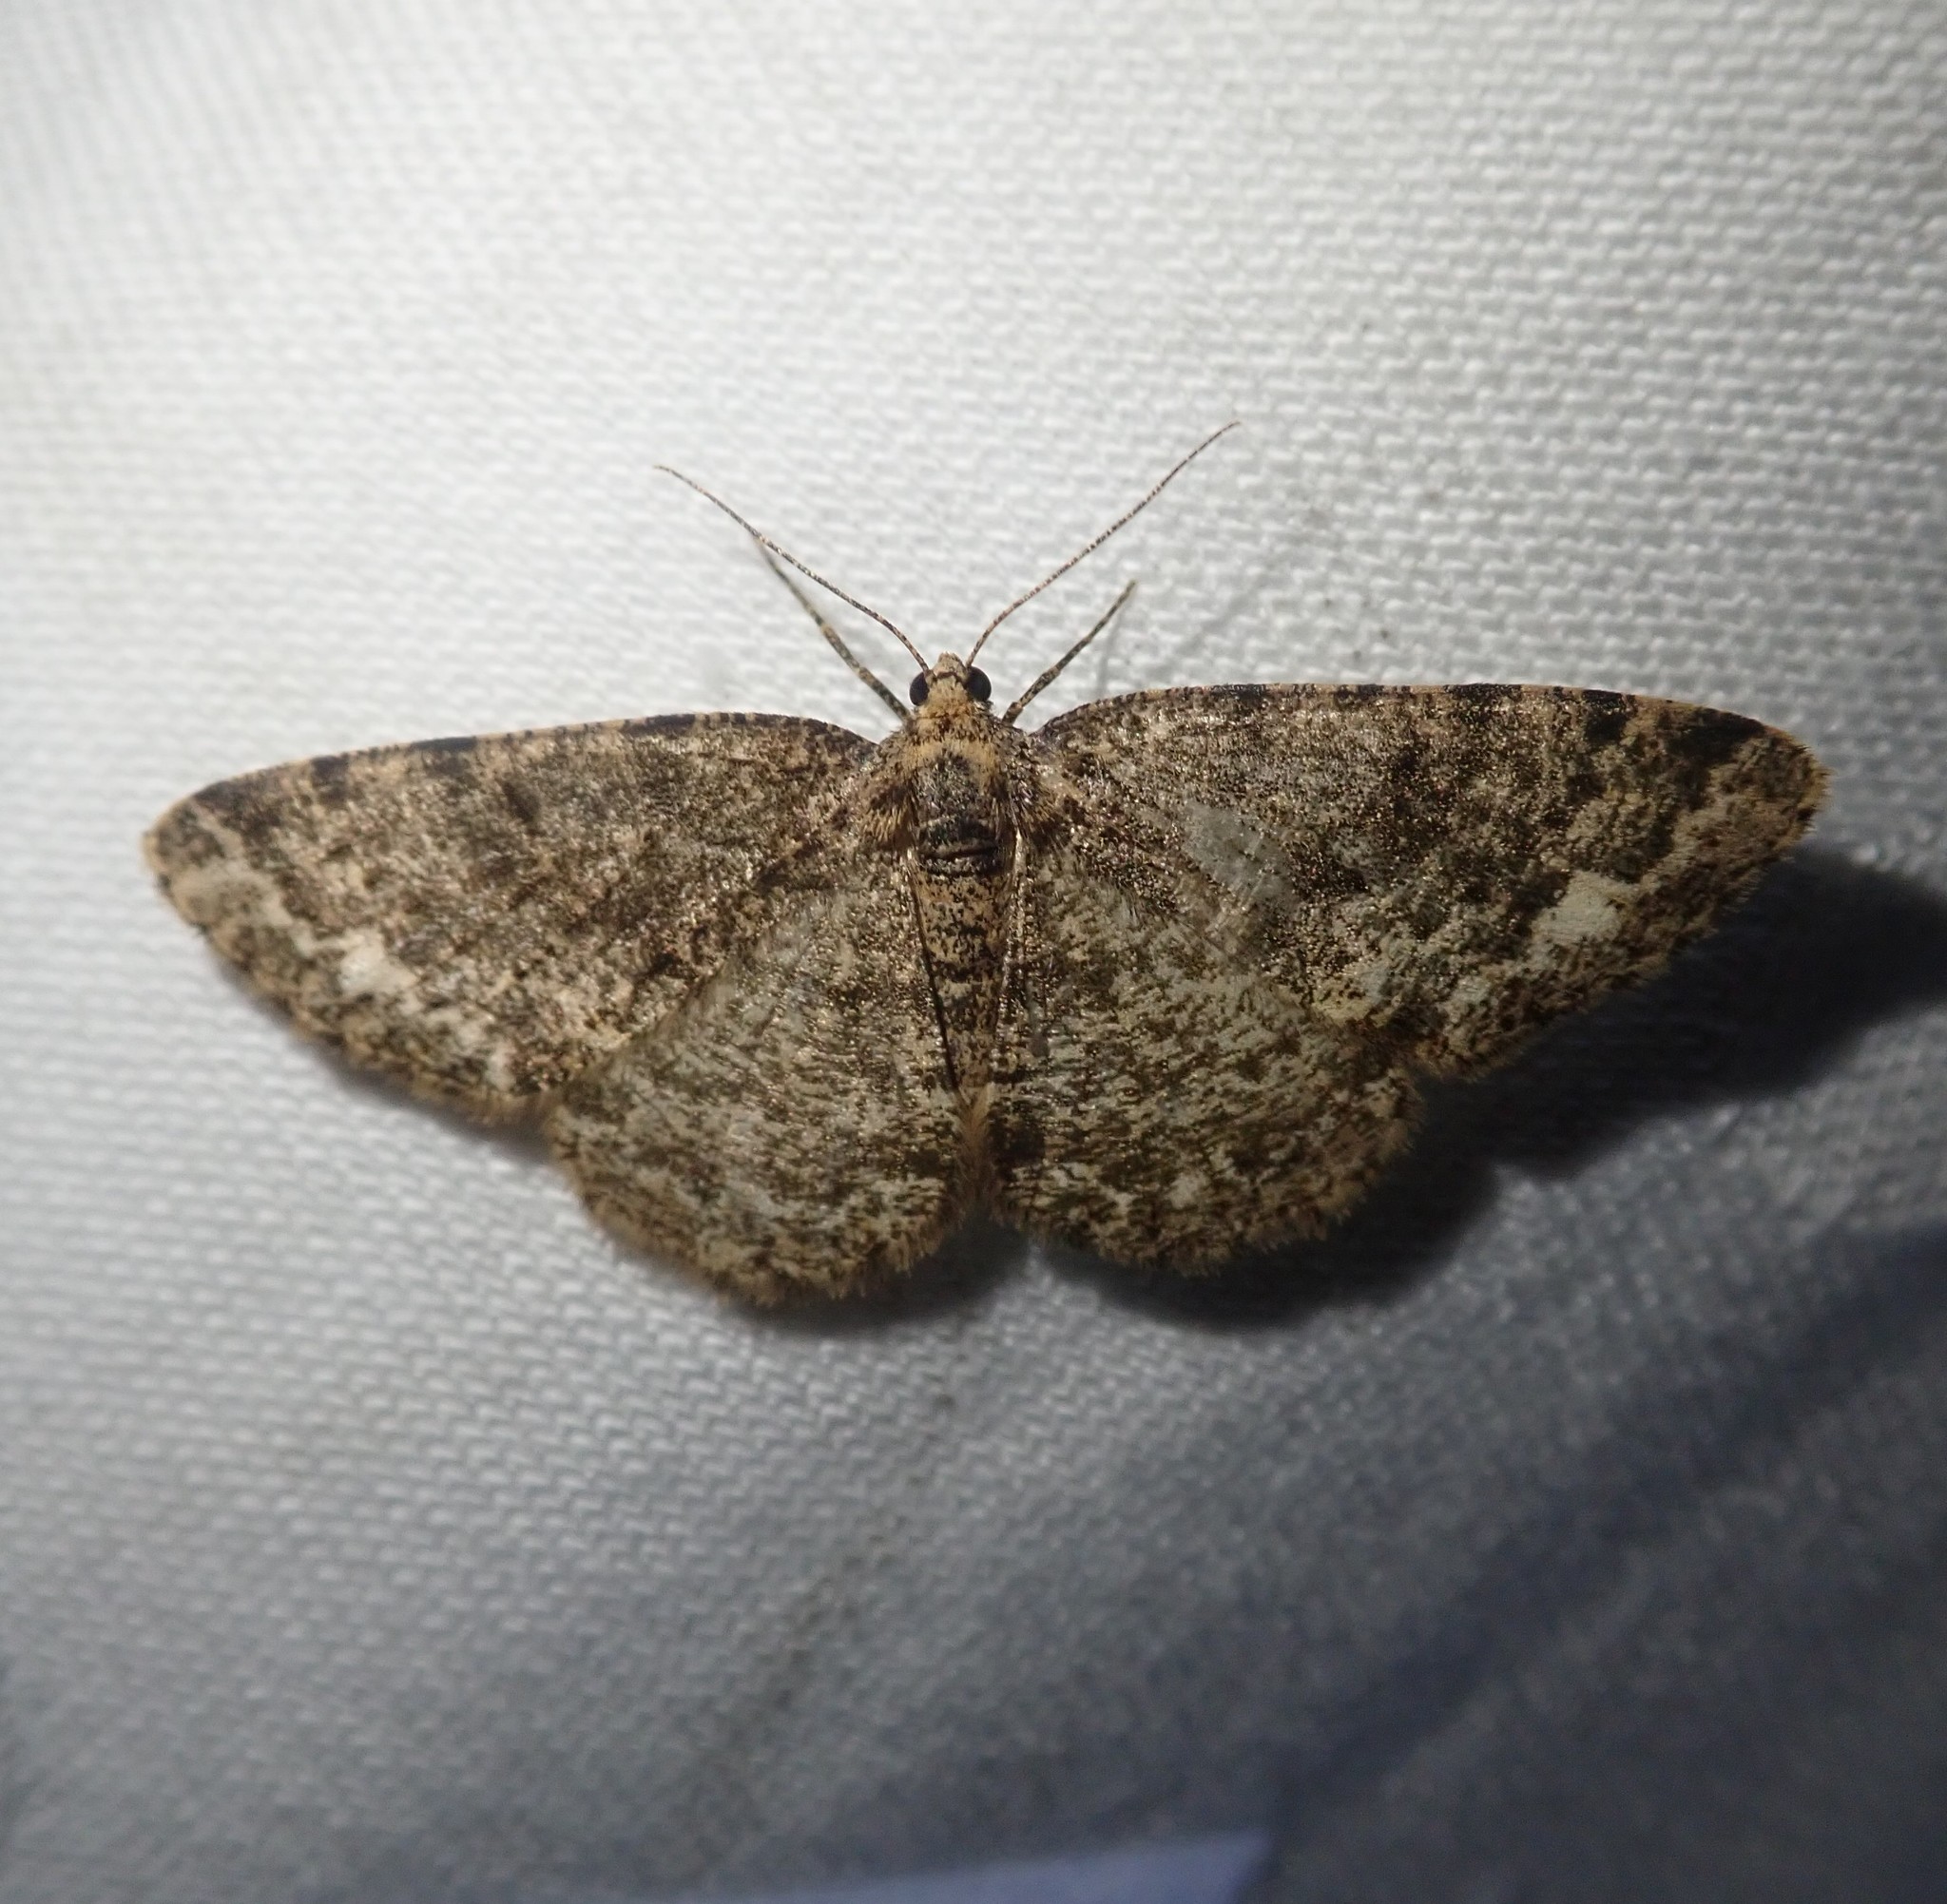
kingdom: Animalia
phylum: Arthropoda
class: Insecta
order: Lepidoptera
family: Geometridae
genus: Parectropis
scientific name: Parectropis similaria
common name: Brindled white-spot
